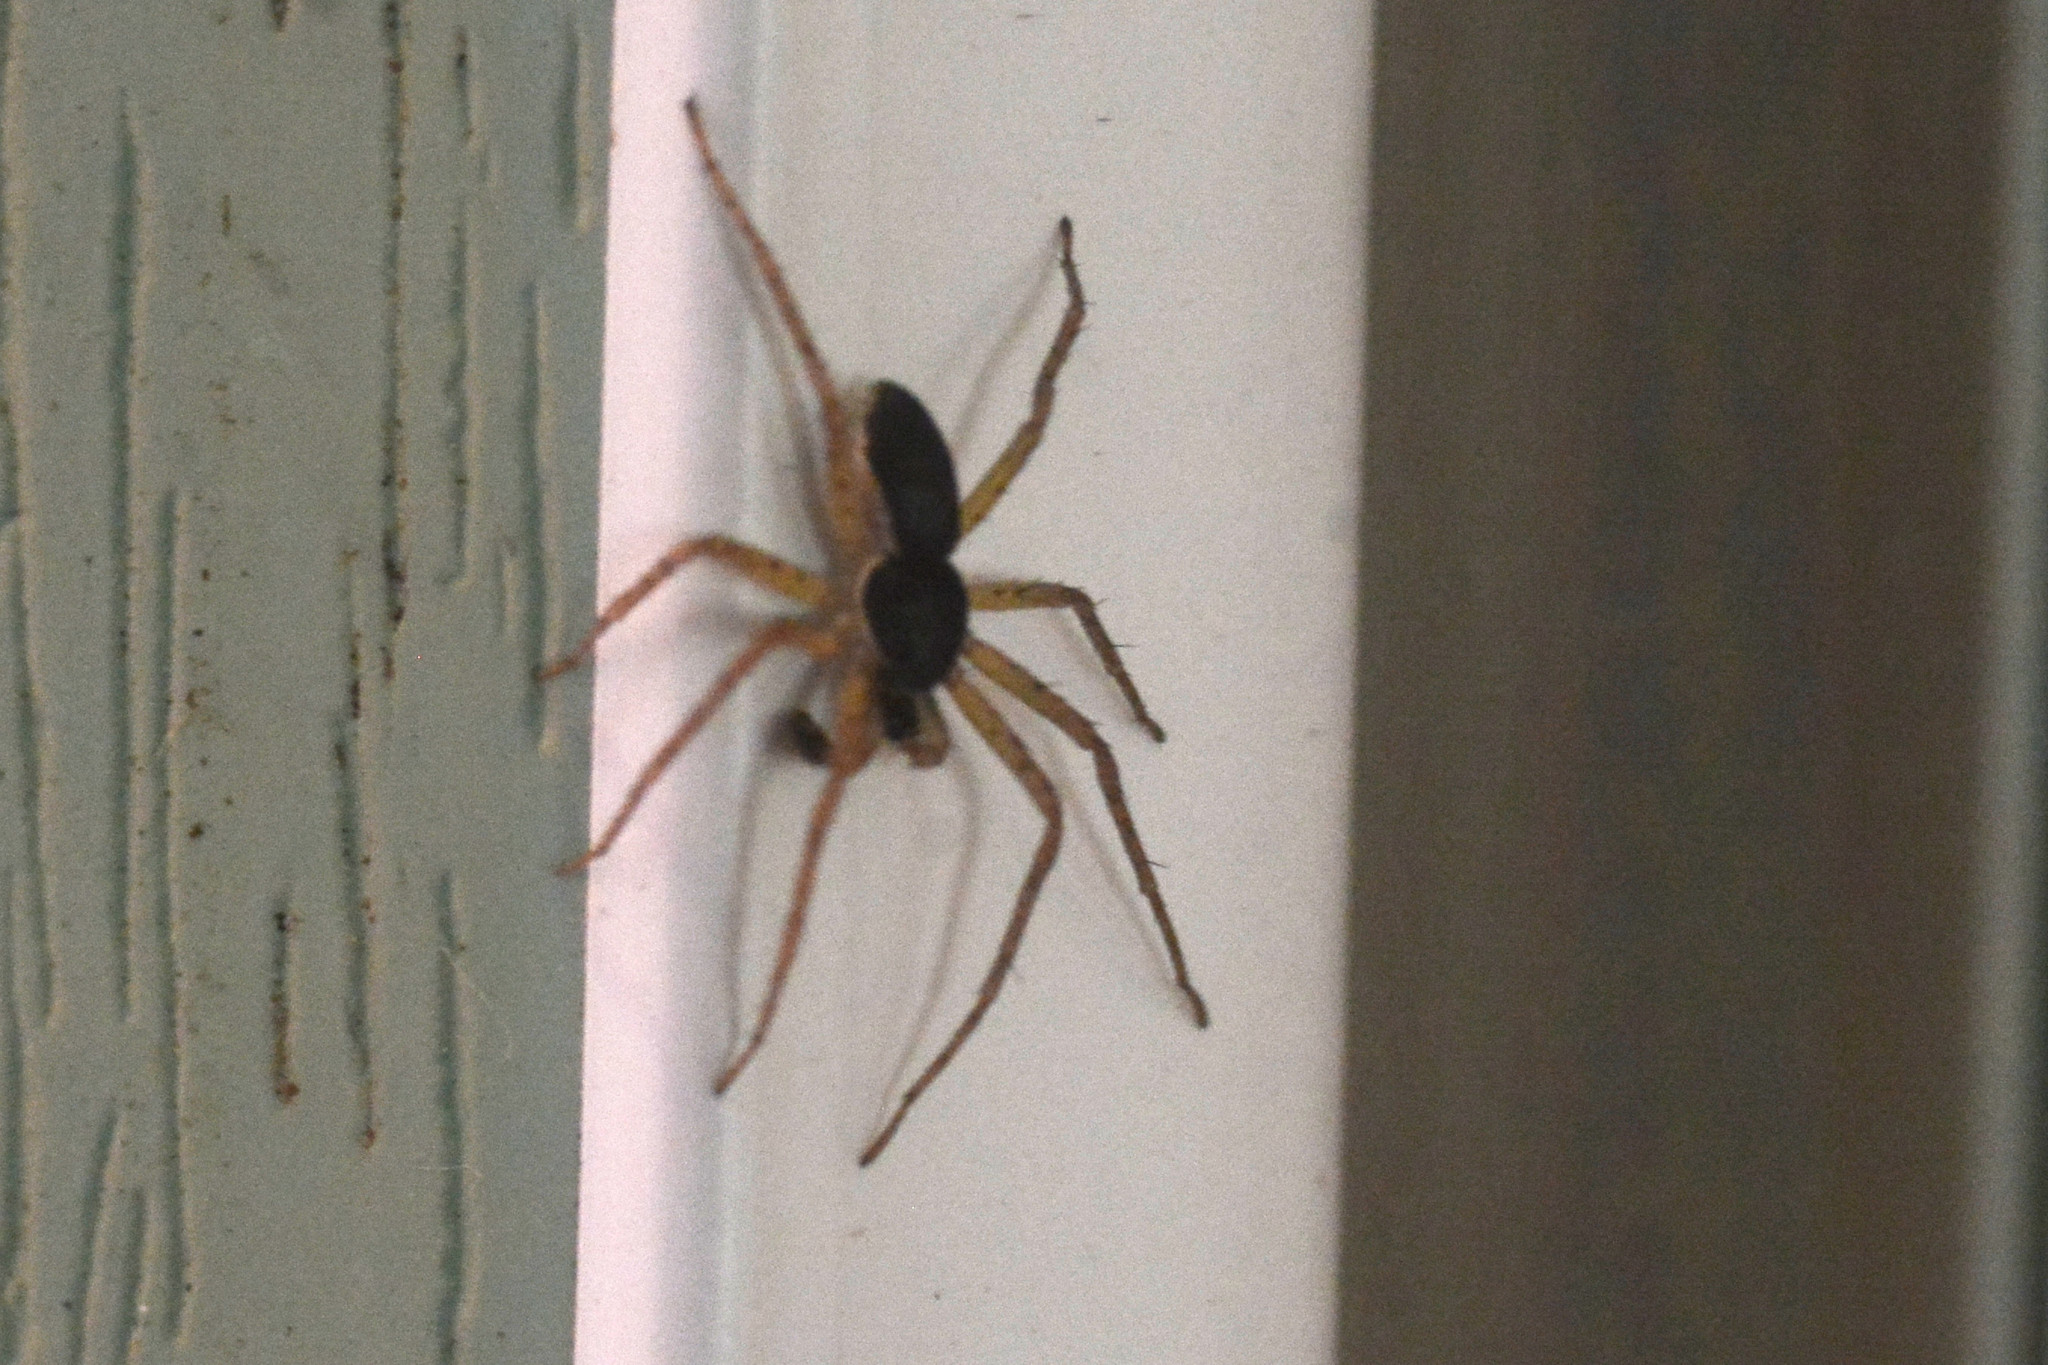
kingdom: Animalia
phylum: Arthropoda
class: Arachnida
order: Araneae
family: Philodromidae
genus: Philodromus
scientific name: Philodromus dispar
